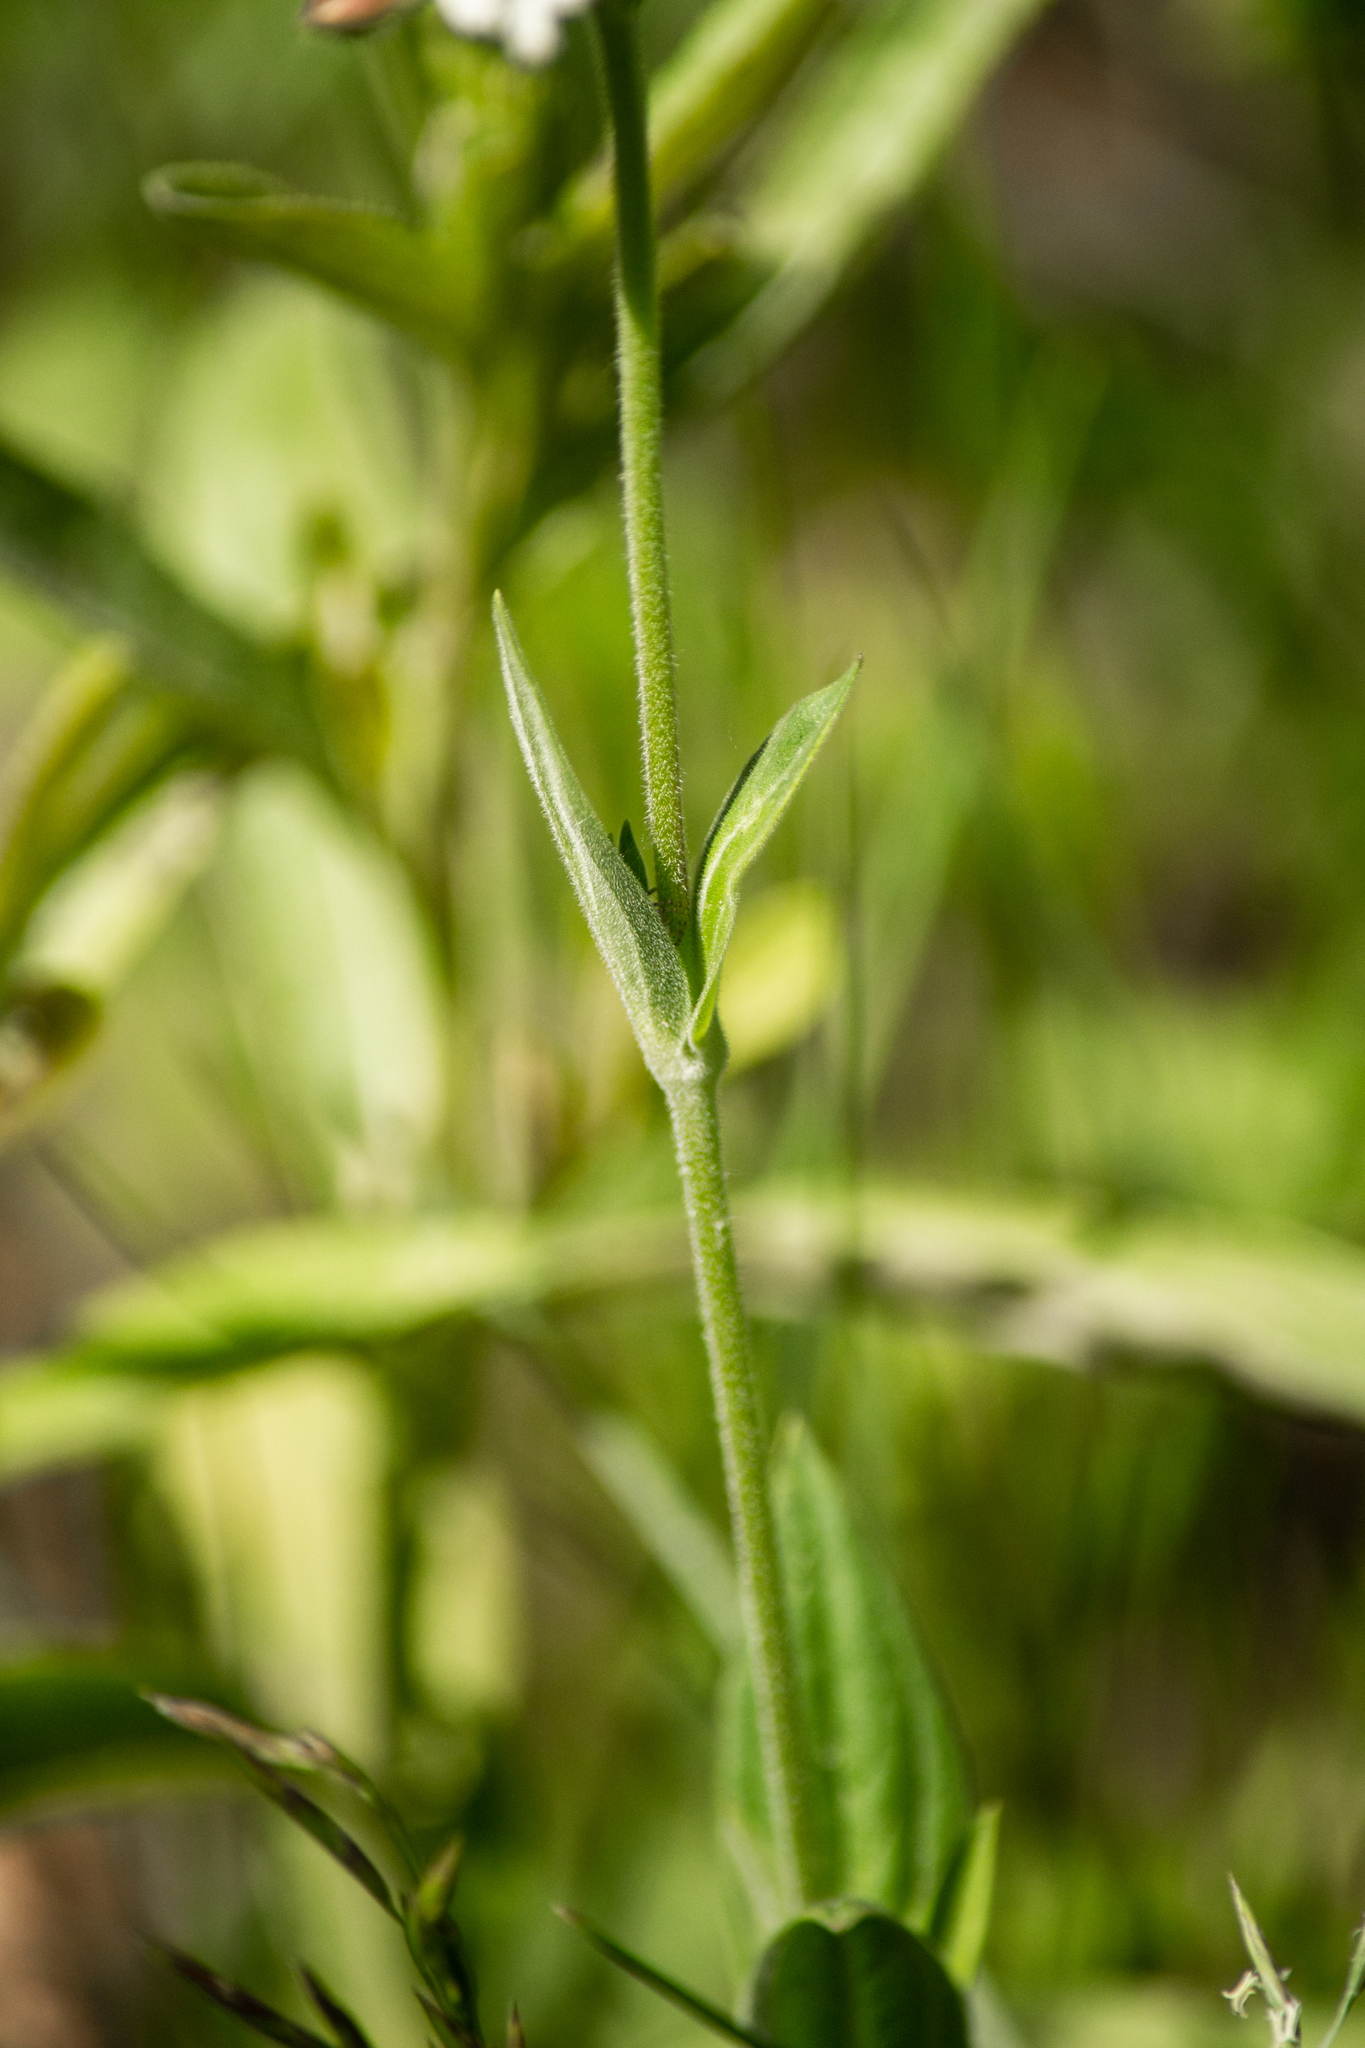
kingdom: Plantae
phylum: Tracheophyta
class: Magnoliopsida
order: Caryophyllales
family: Caryophyllaceae
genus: Silene
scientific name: Silene latifolia
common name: White campion
